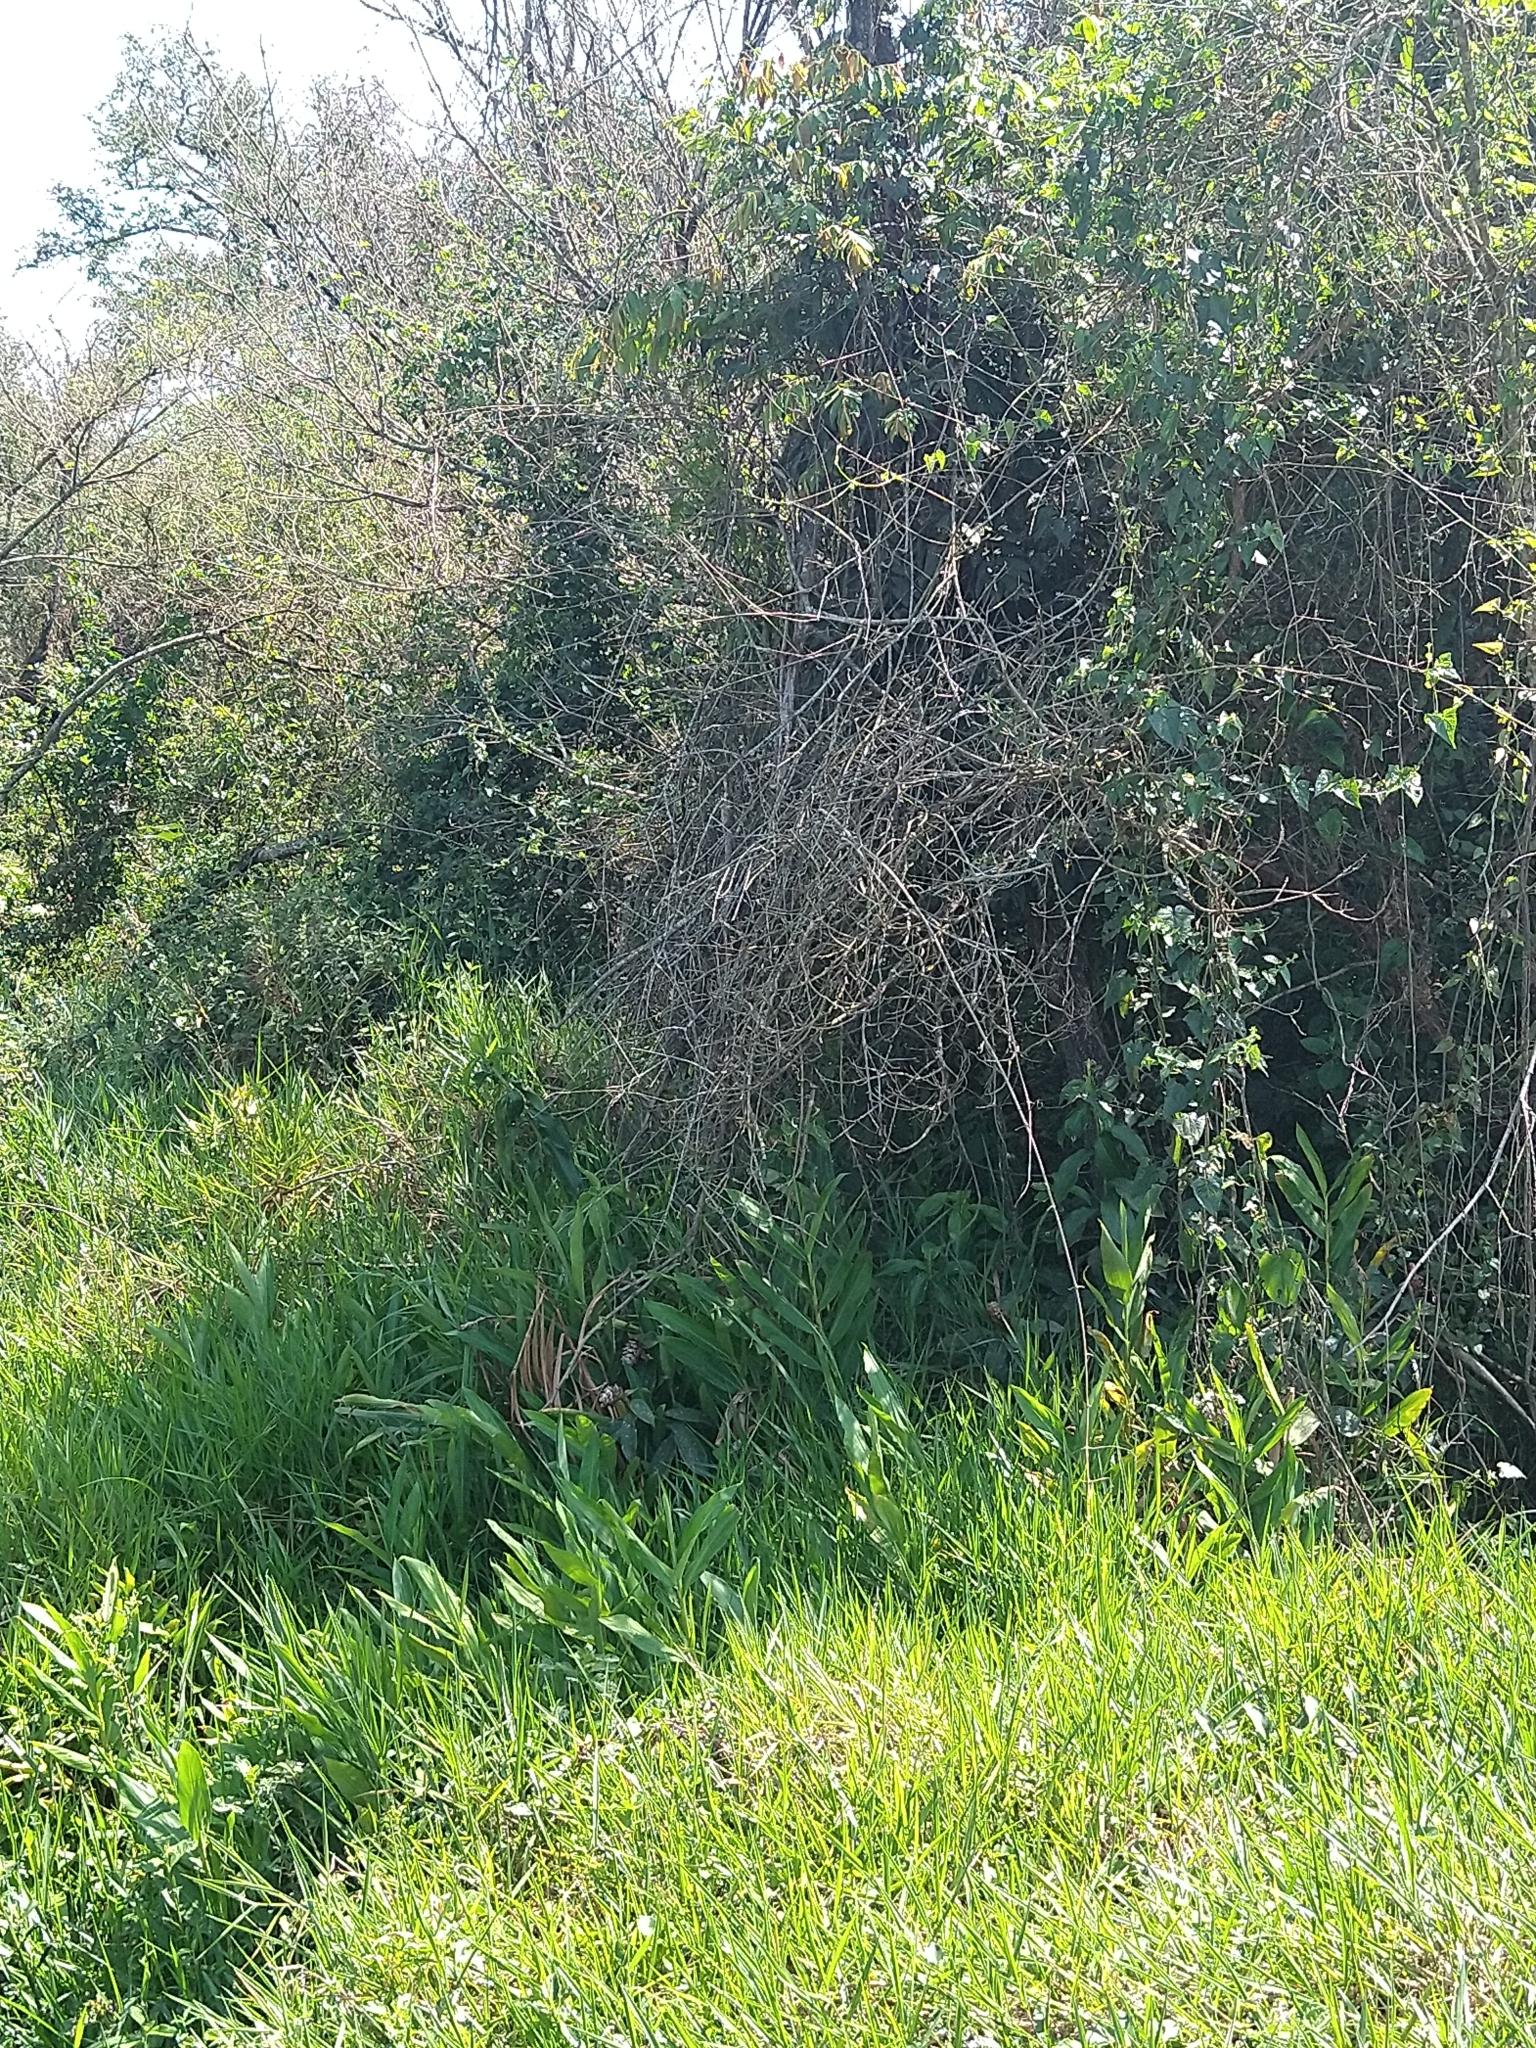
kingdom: Plantae
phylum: Tracheophyta
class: Liliopsida
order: Zingiberales
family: Zingiberaceae
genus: Hedychium
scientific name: Hedychium coronarium
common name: White garland-lily
